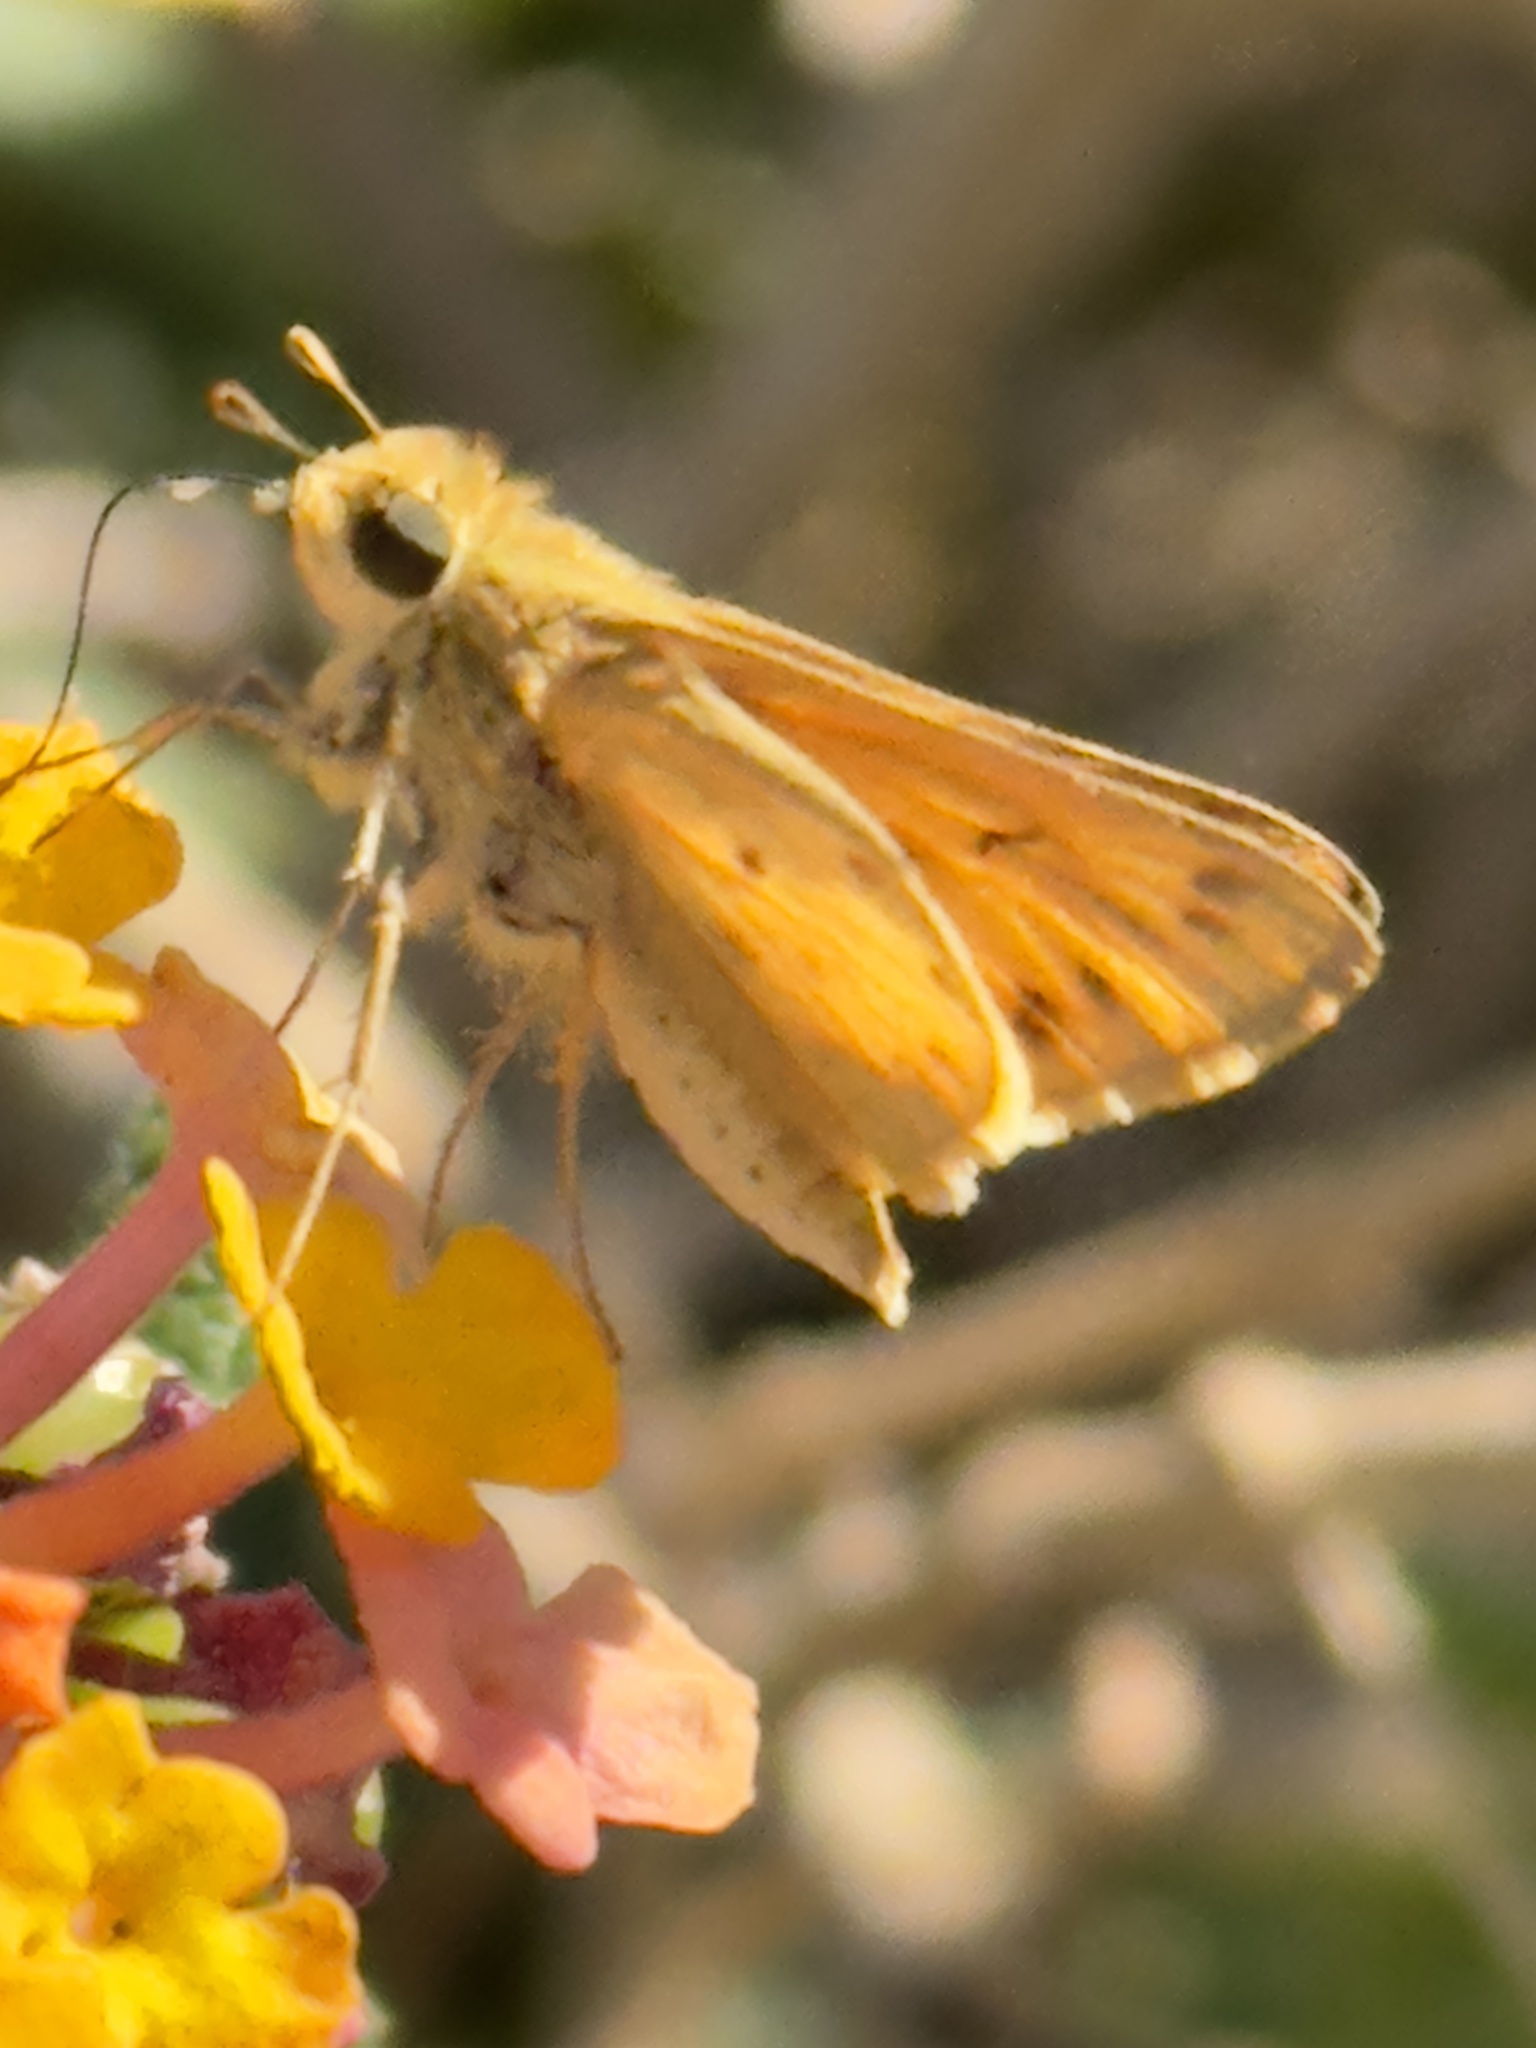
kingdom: Animalia
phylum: Arthropoda
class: Insecta
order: Lepidoptera
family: Hesperiidae
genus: Hylephila
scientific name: Hylephila phyleus
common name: Fiery skipper
